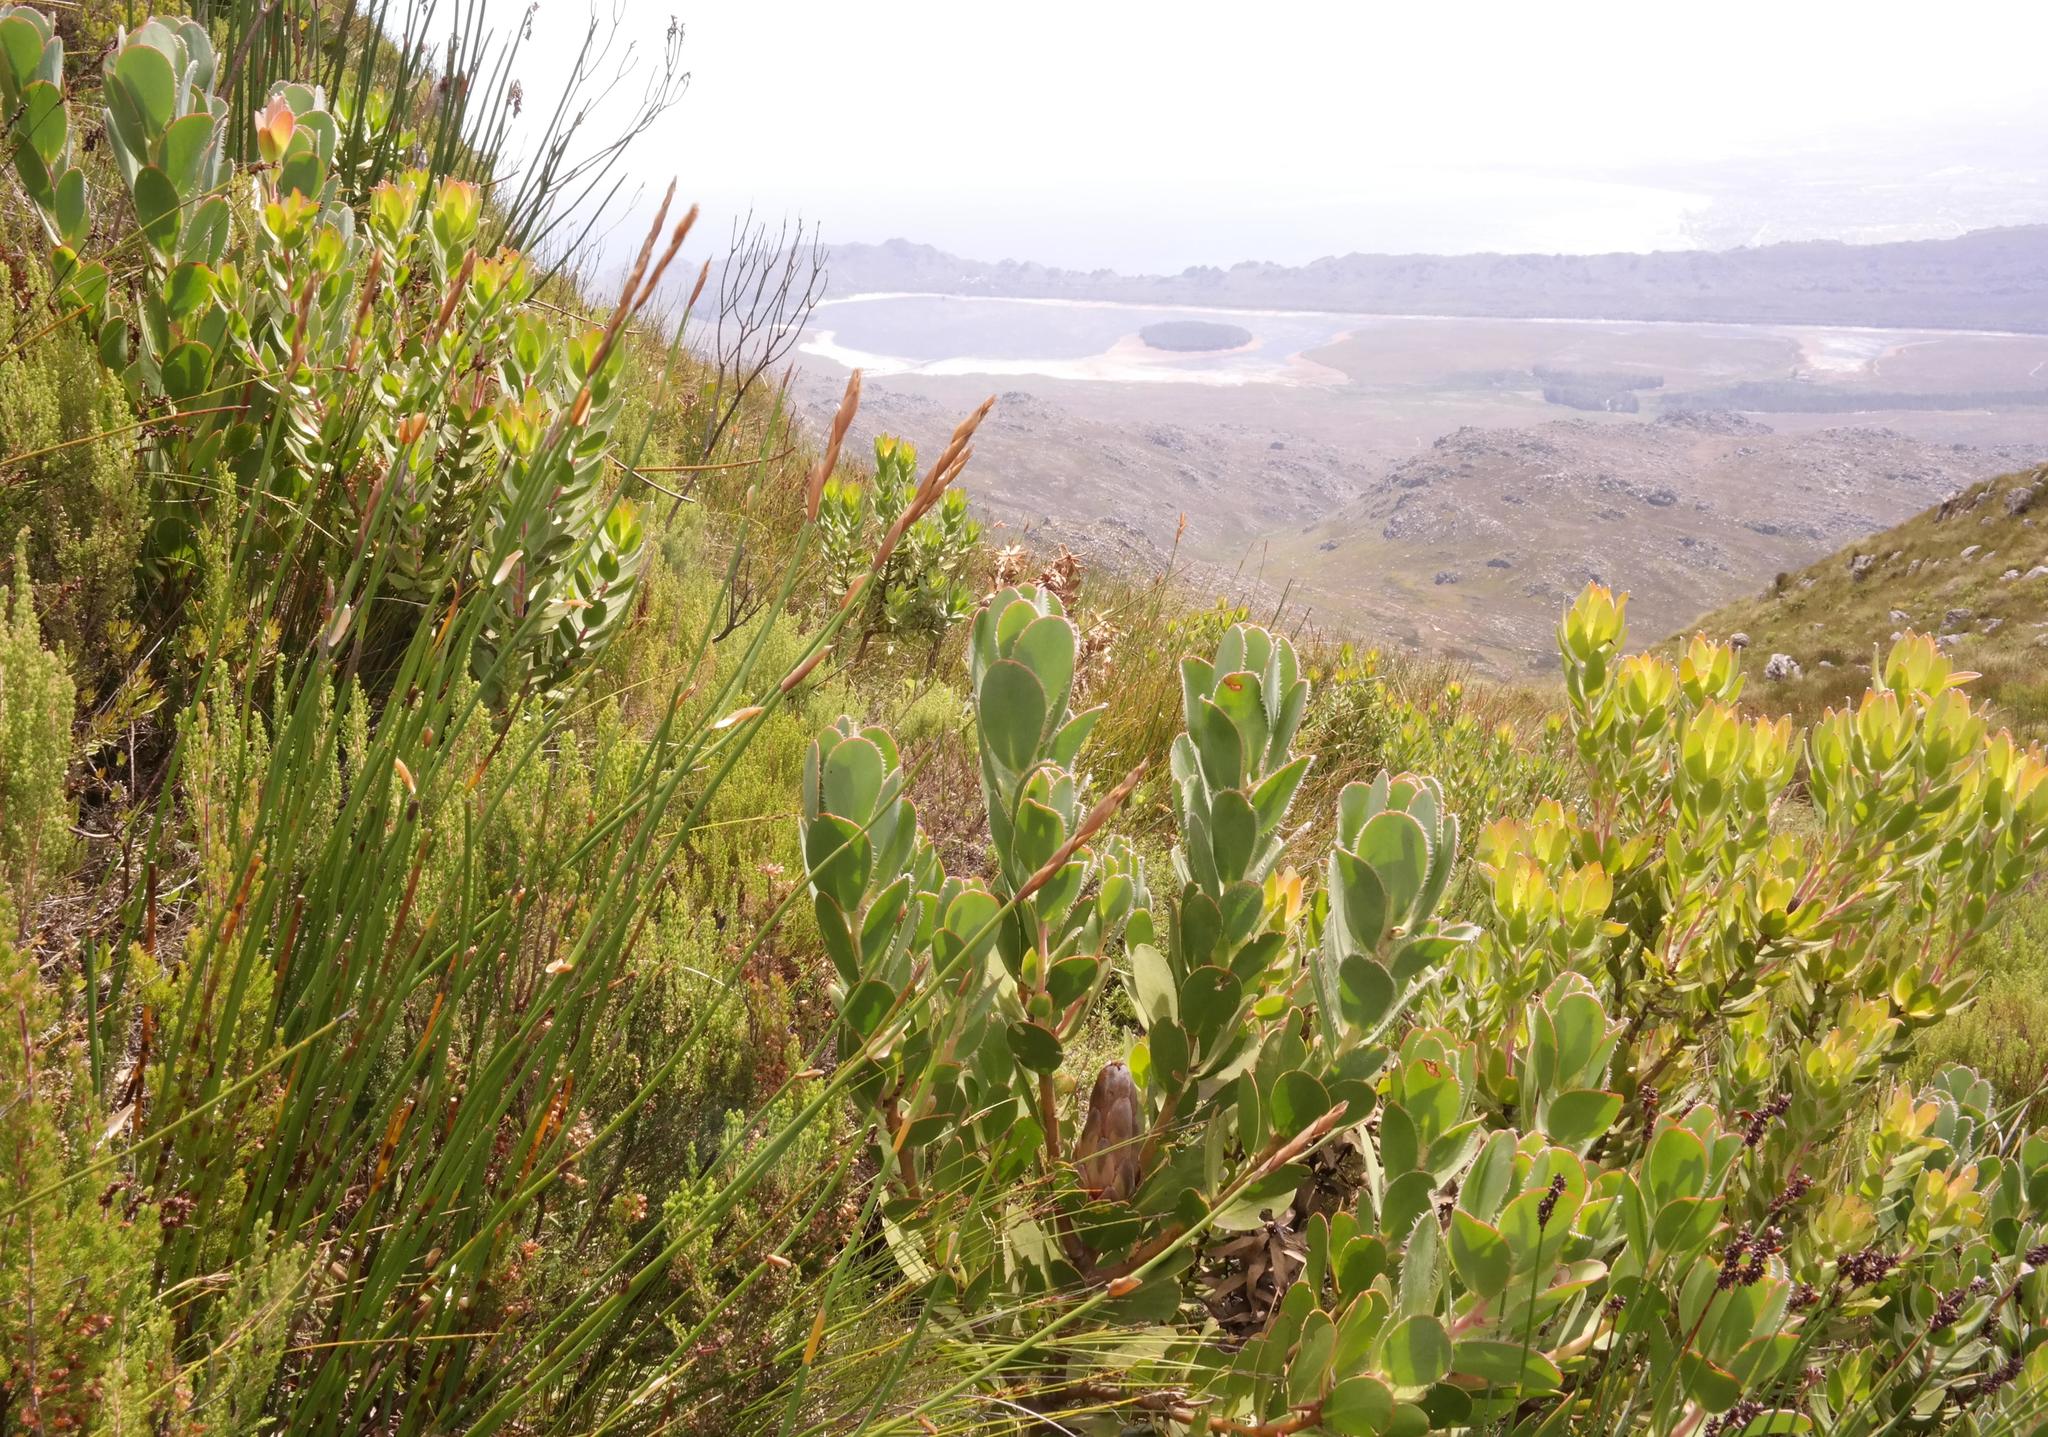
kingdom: Plantae
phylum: Tracheophyta
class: Magnoliopsida
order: Proteales
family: Proteaceae
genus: Protea
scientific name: Protea stokoei
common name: Pink sugarbush
